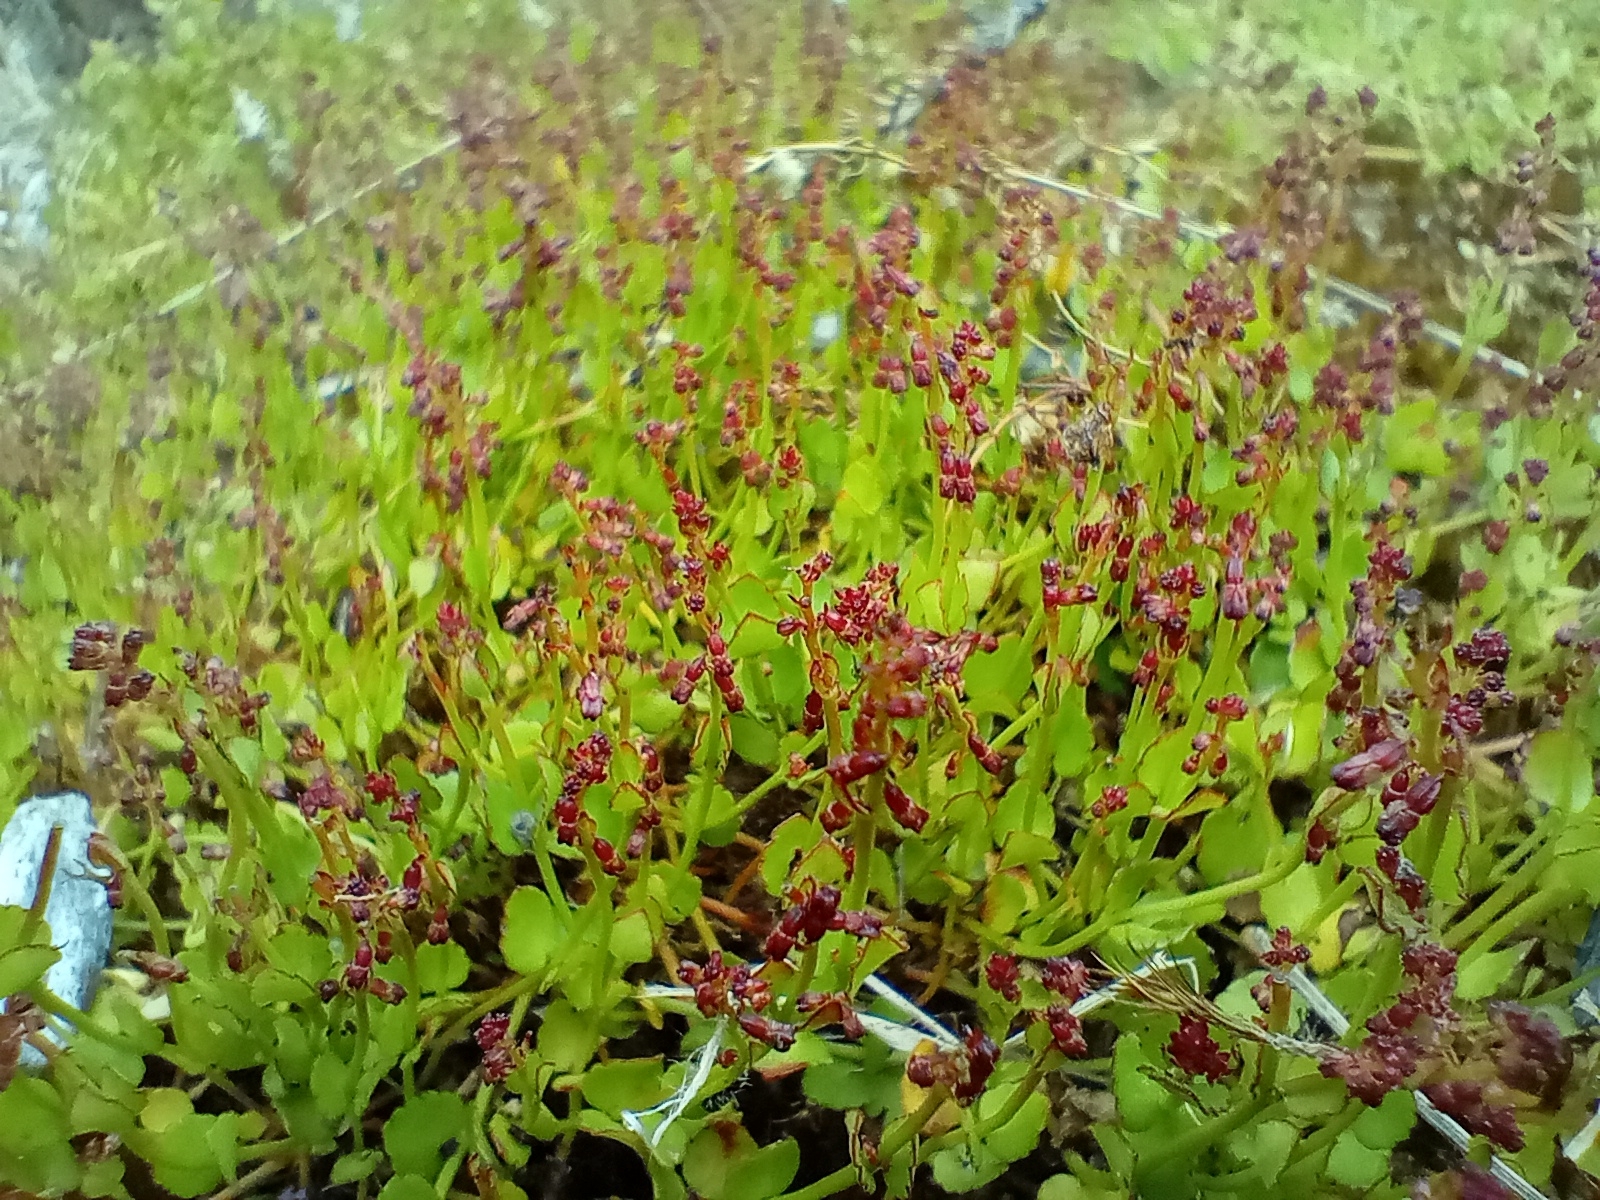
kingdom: Plantae
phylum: Tracheophyta
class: Magnoliopsida
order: Saxifragales
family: Haloragaceae
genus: Gonocarpus
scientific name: Gonocarpus micranthus
